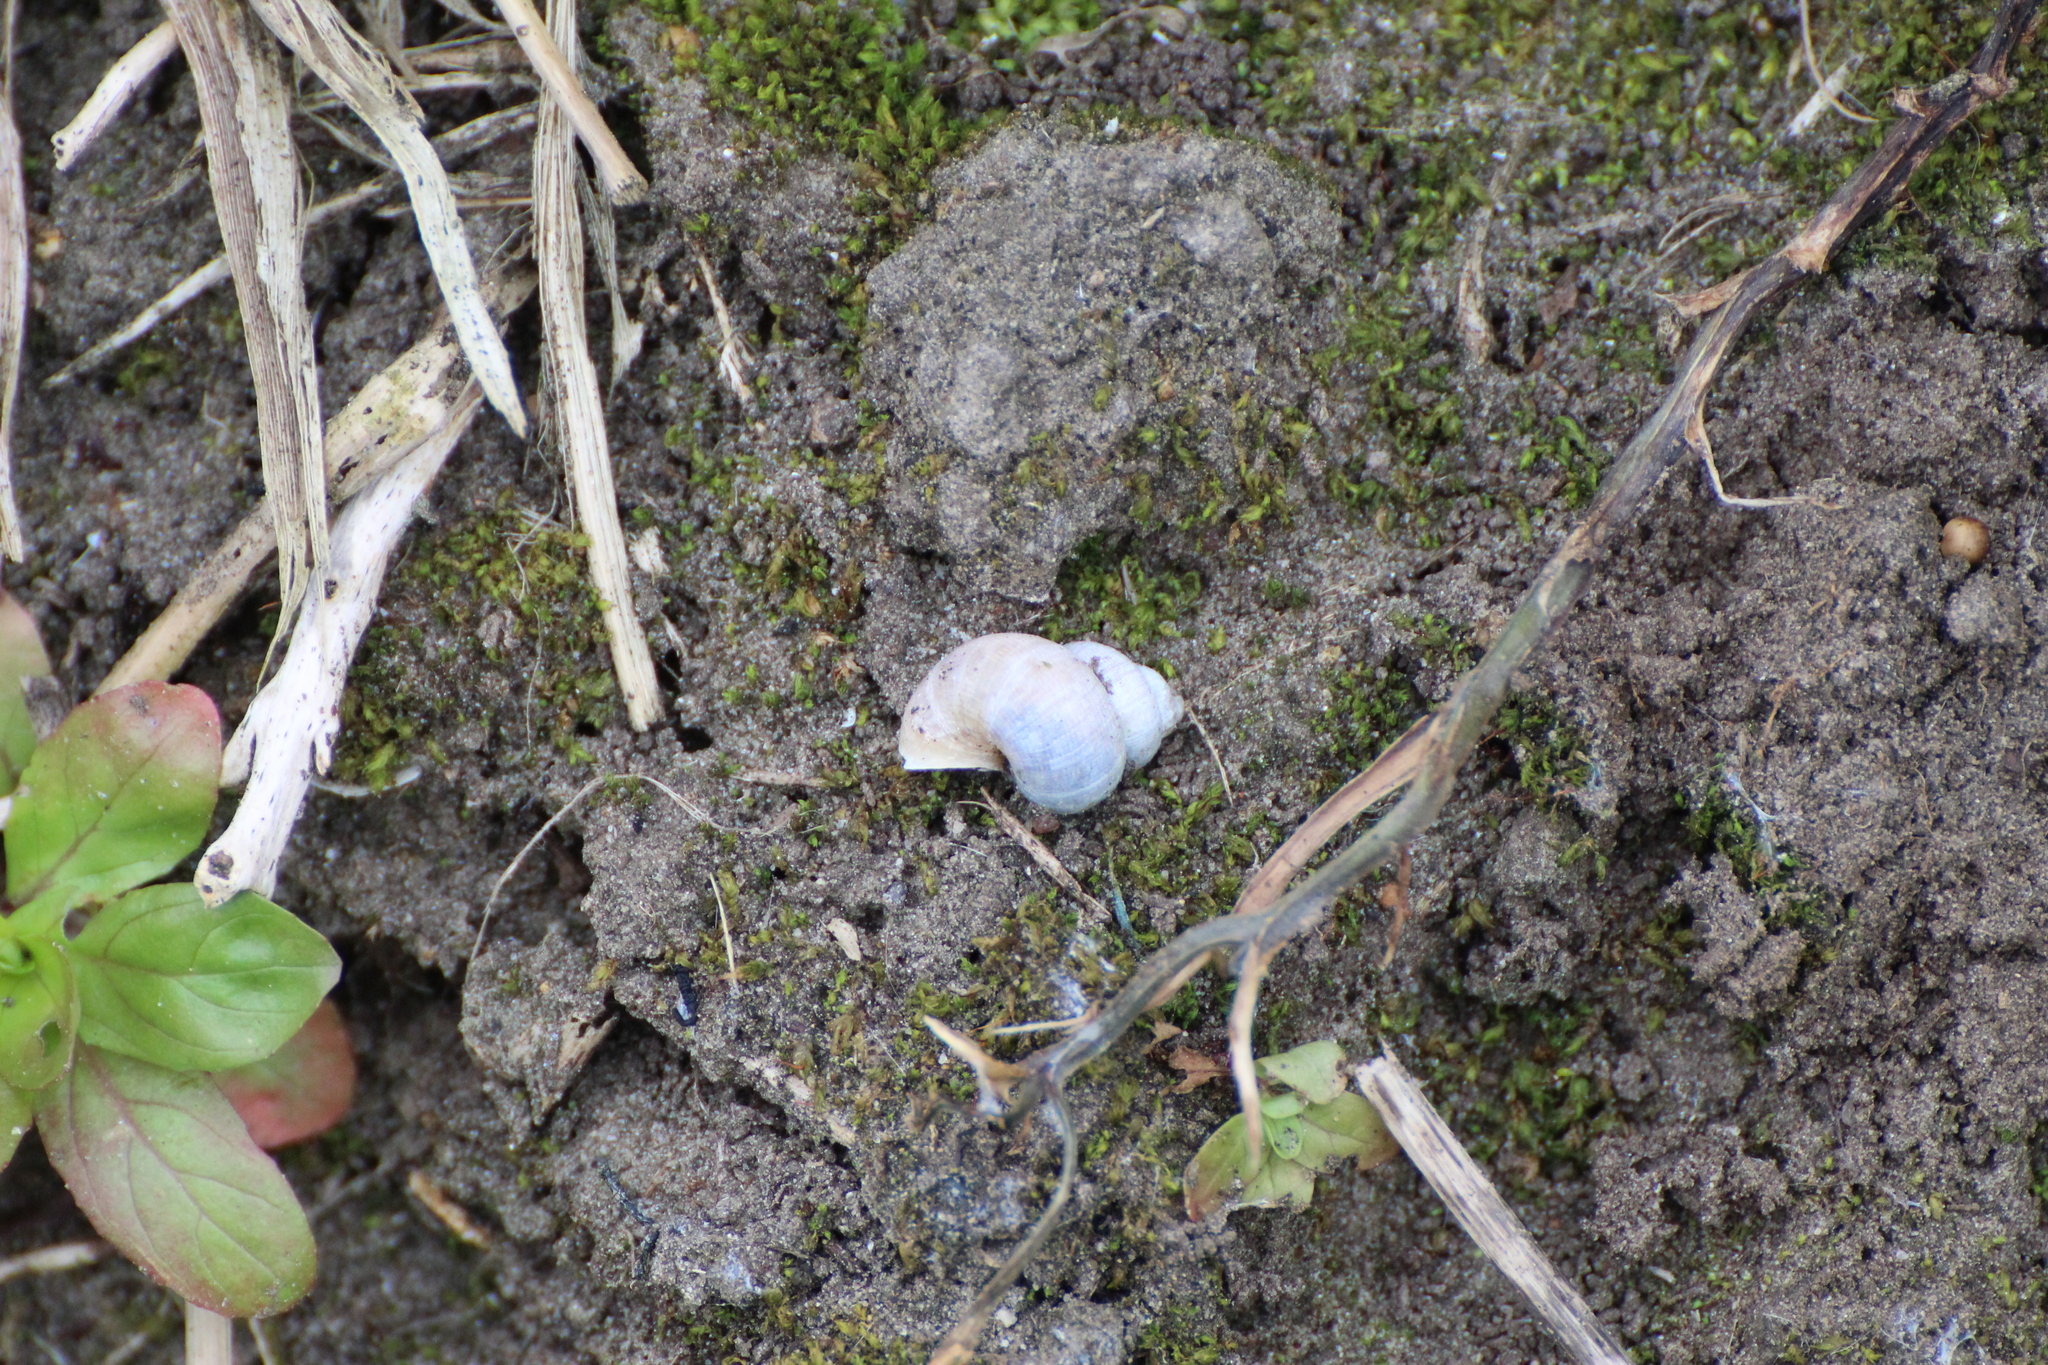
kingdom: Animalia
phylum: Mollusca
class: Gastropoda
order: Littorinimorpha
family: Pomatiidae
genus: Pomatias
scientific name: Pomatias elegans
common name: Red-mouthed snail
